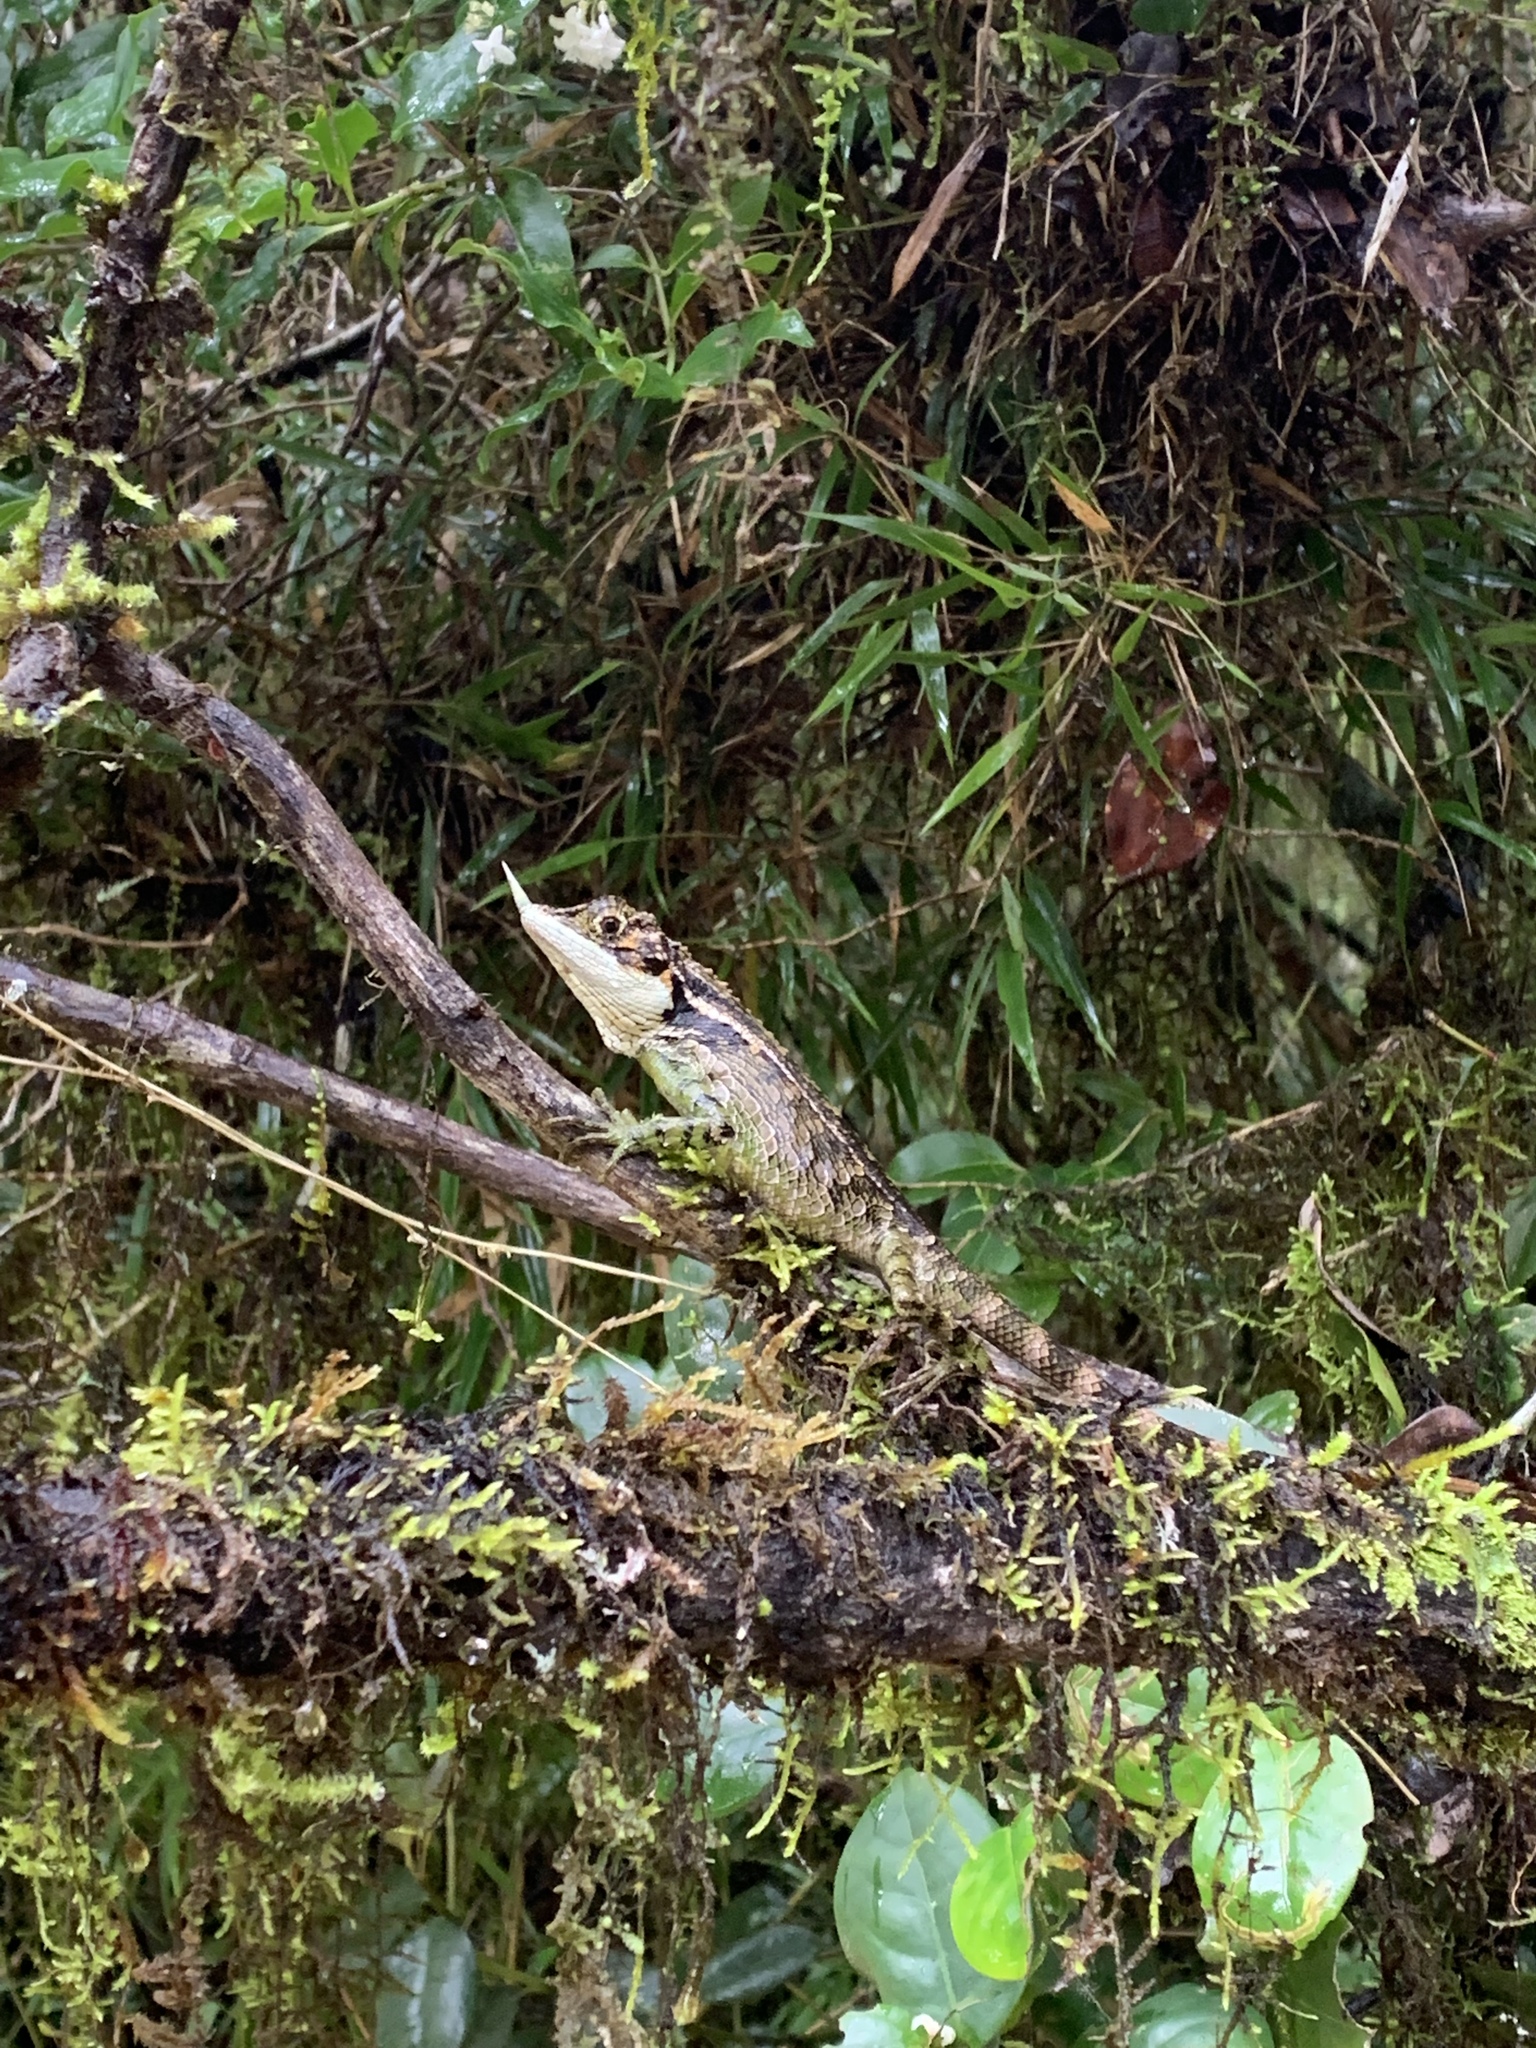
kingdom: Animalia
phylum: Chordata
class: Squamata
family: Agamidae
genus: Ceratophora
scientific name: Ceratophora stoddartii
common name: Mountain horned agama
